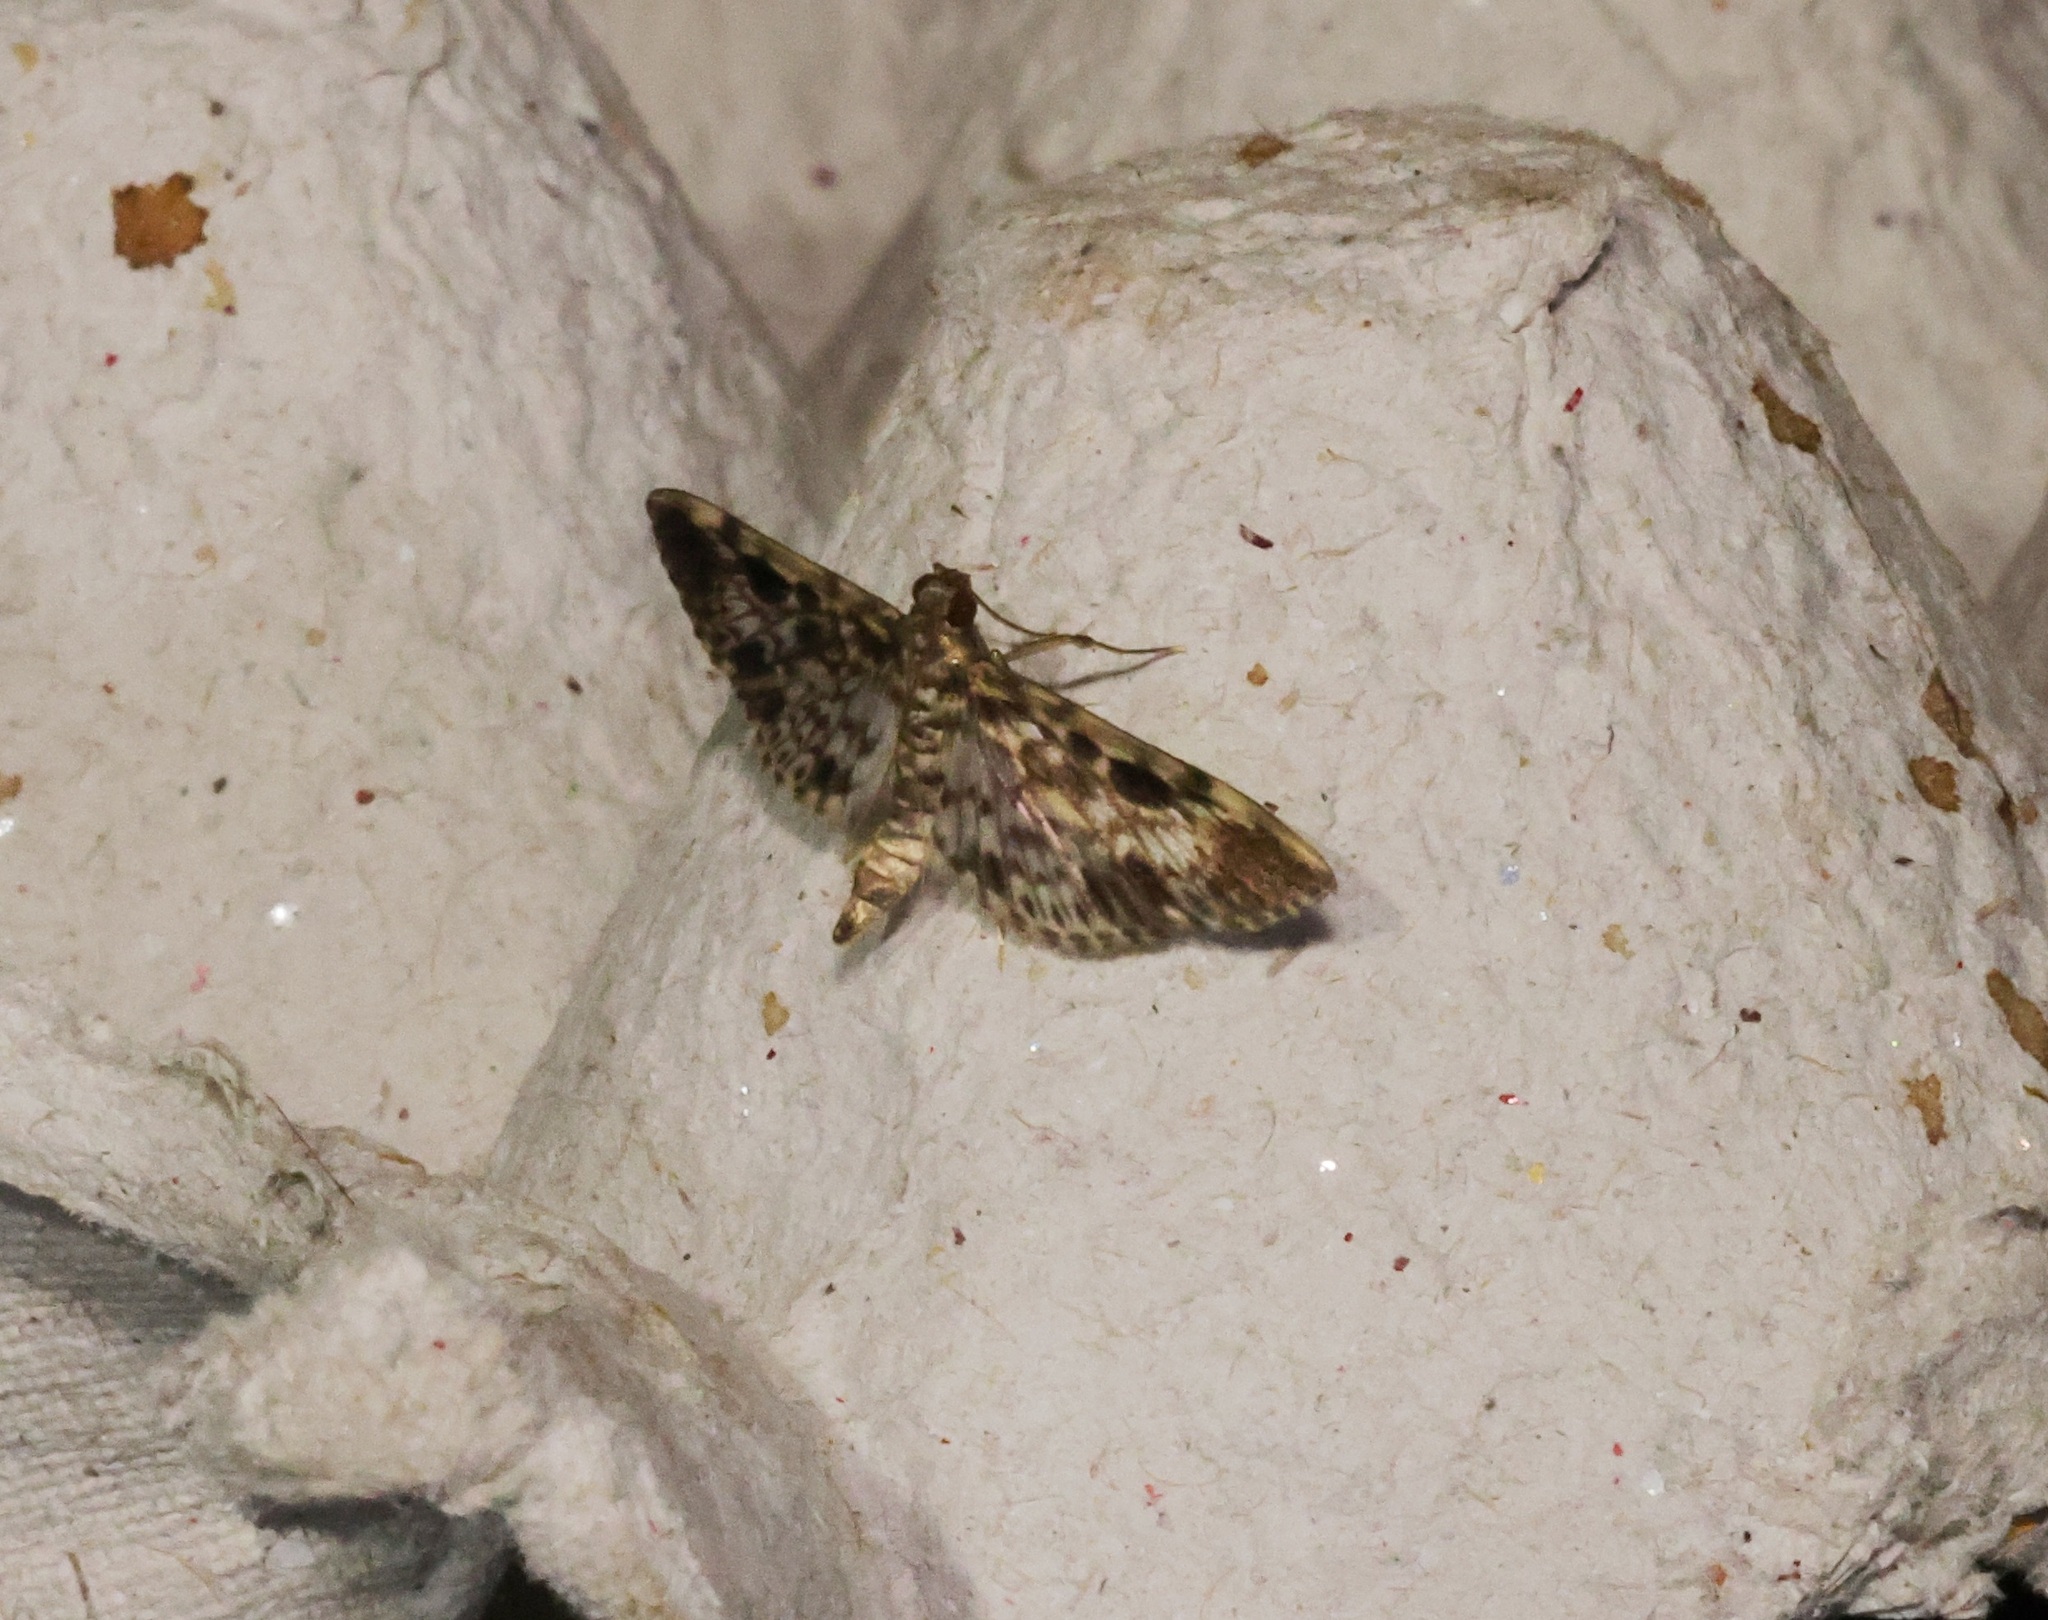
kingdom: Animalia
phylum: Arthropoda
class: Insecta
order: Lepidoptera
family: Crambidae
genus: Rhimphaliodes
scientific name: Rhimphaliodes macrostigma
